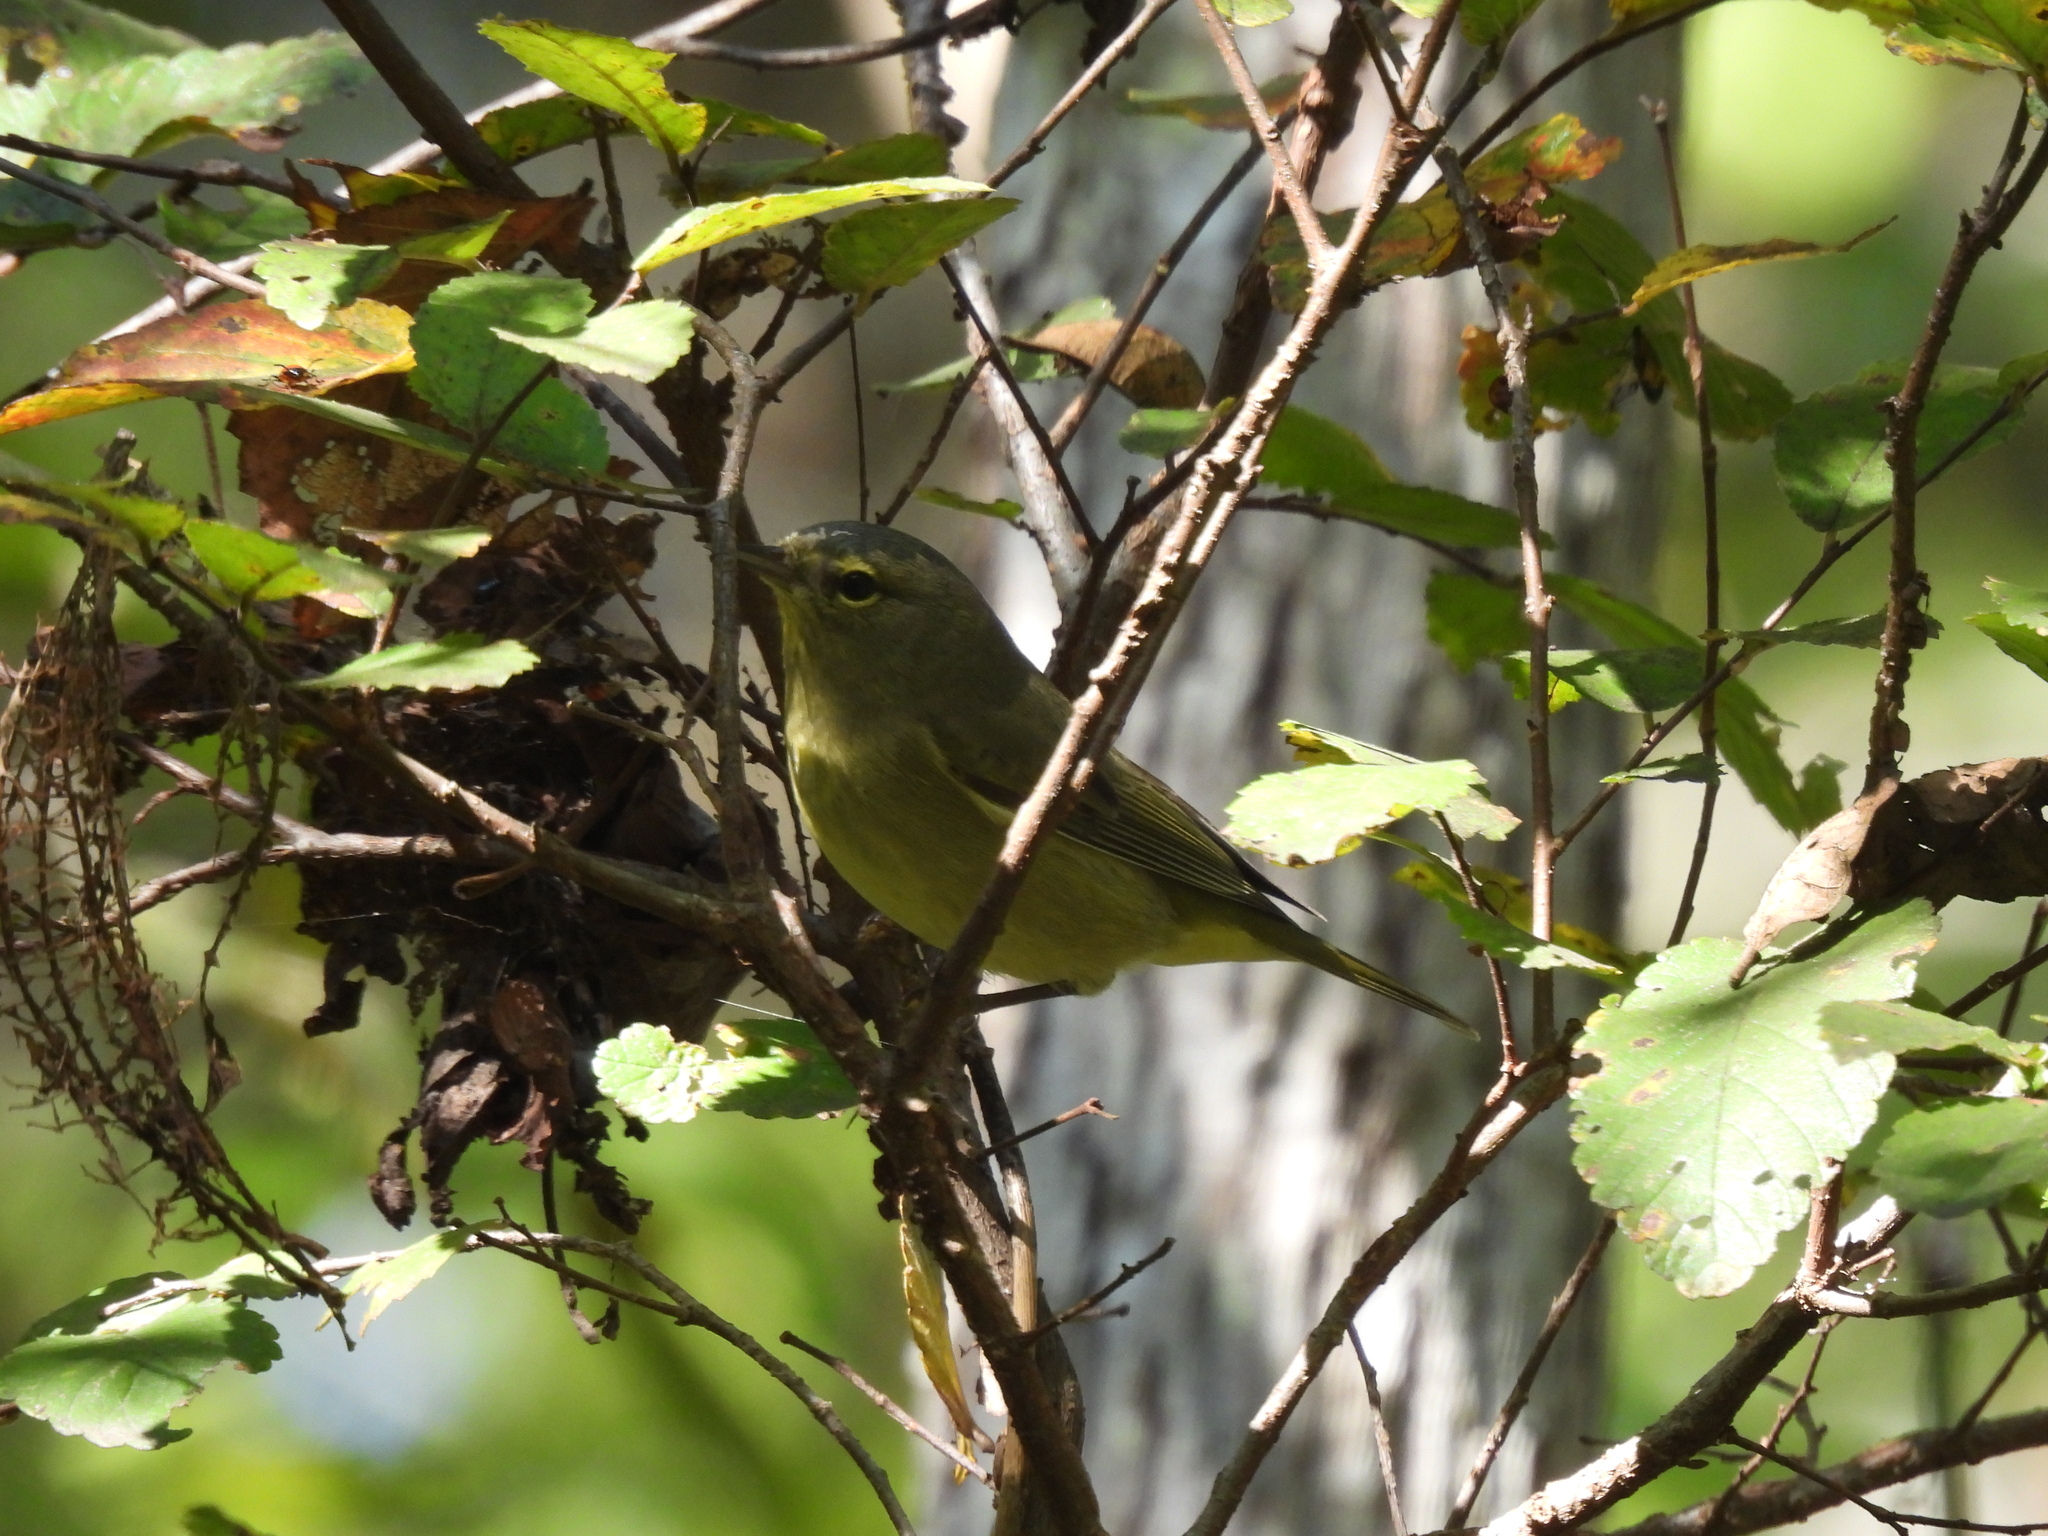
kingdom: Animalia
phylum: Chordata
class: Aves
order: Passeriformes
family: Parulidae
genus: Leiothlypis
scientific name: Leiothlypis celata
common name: Orange-crowned warbler
